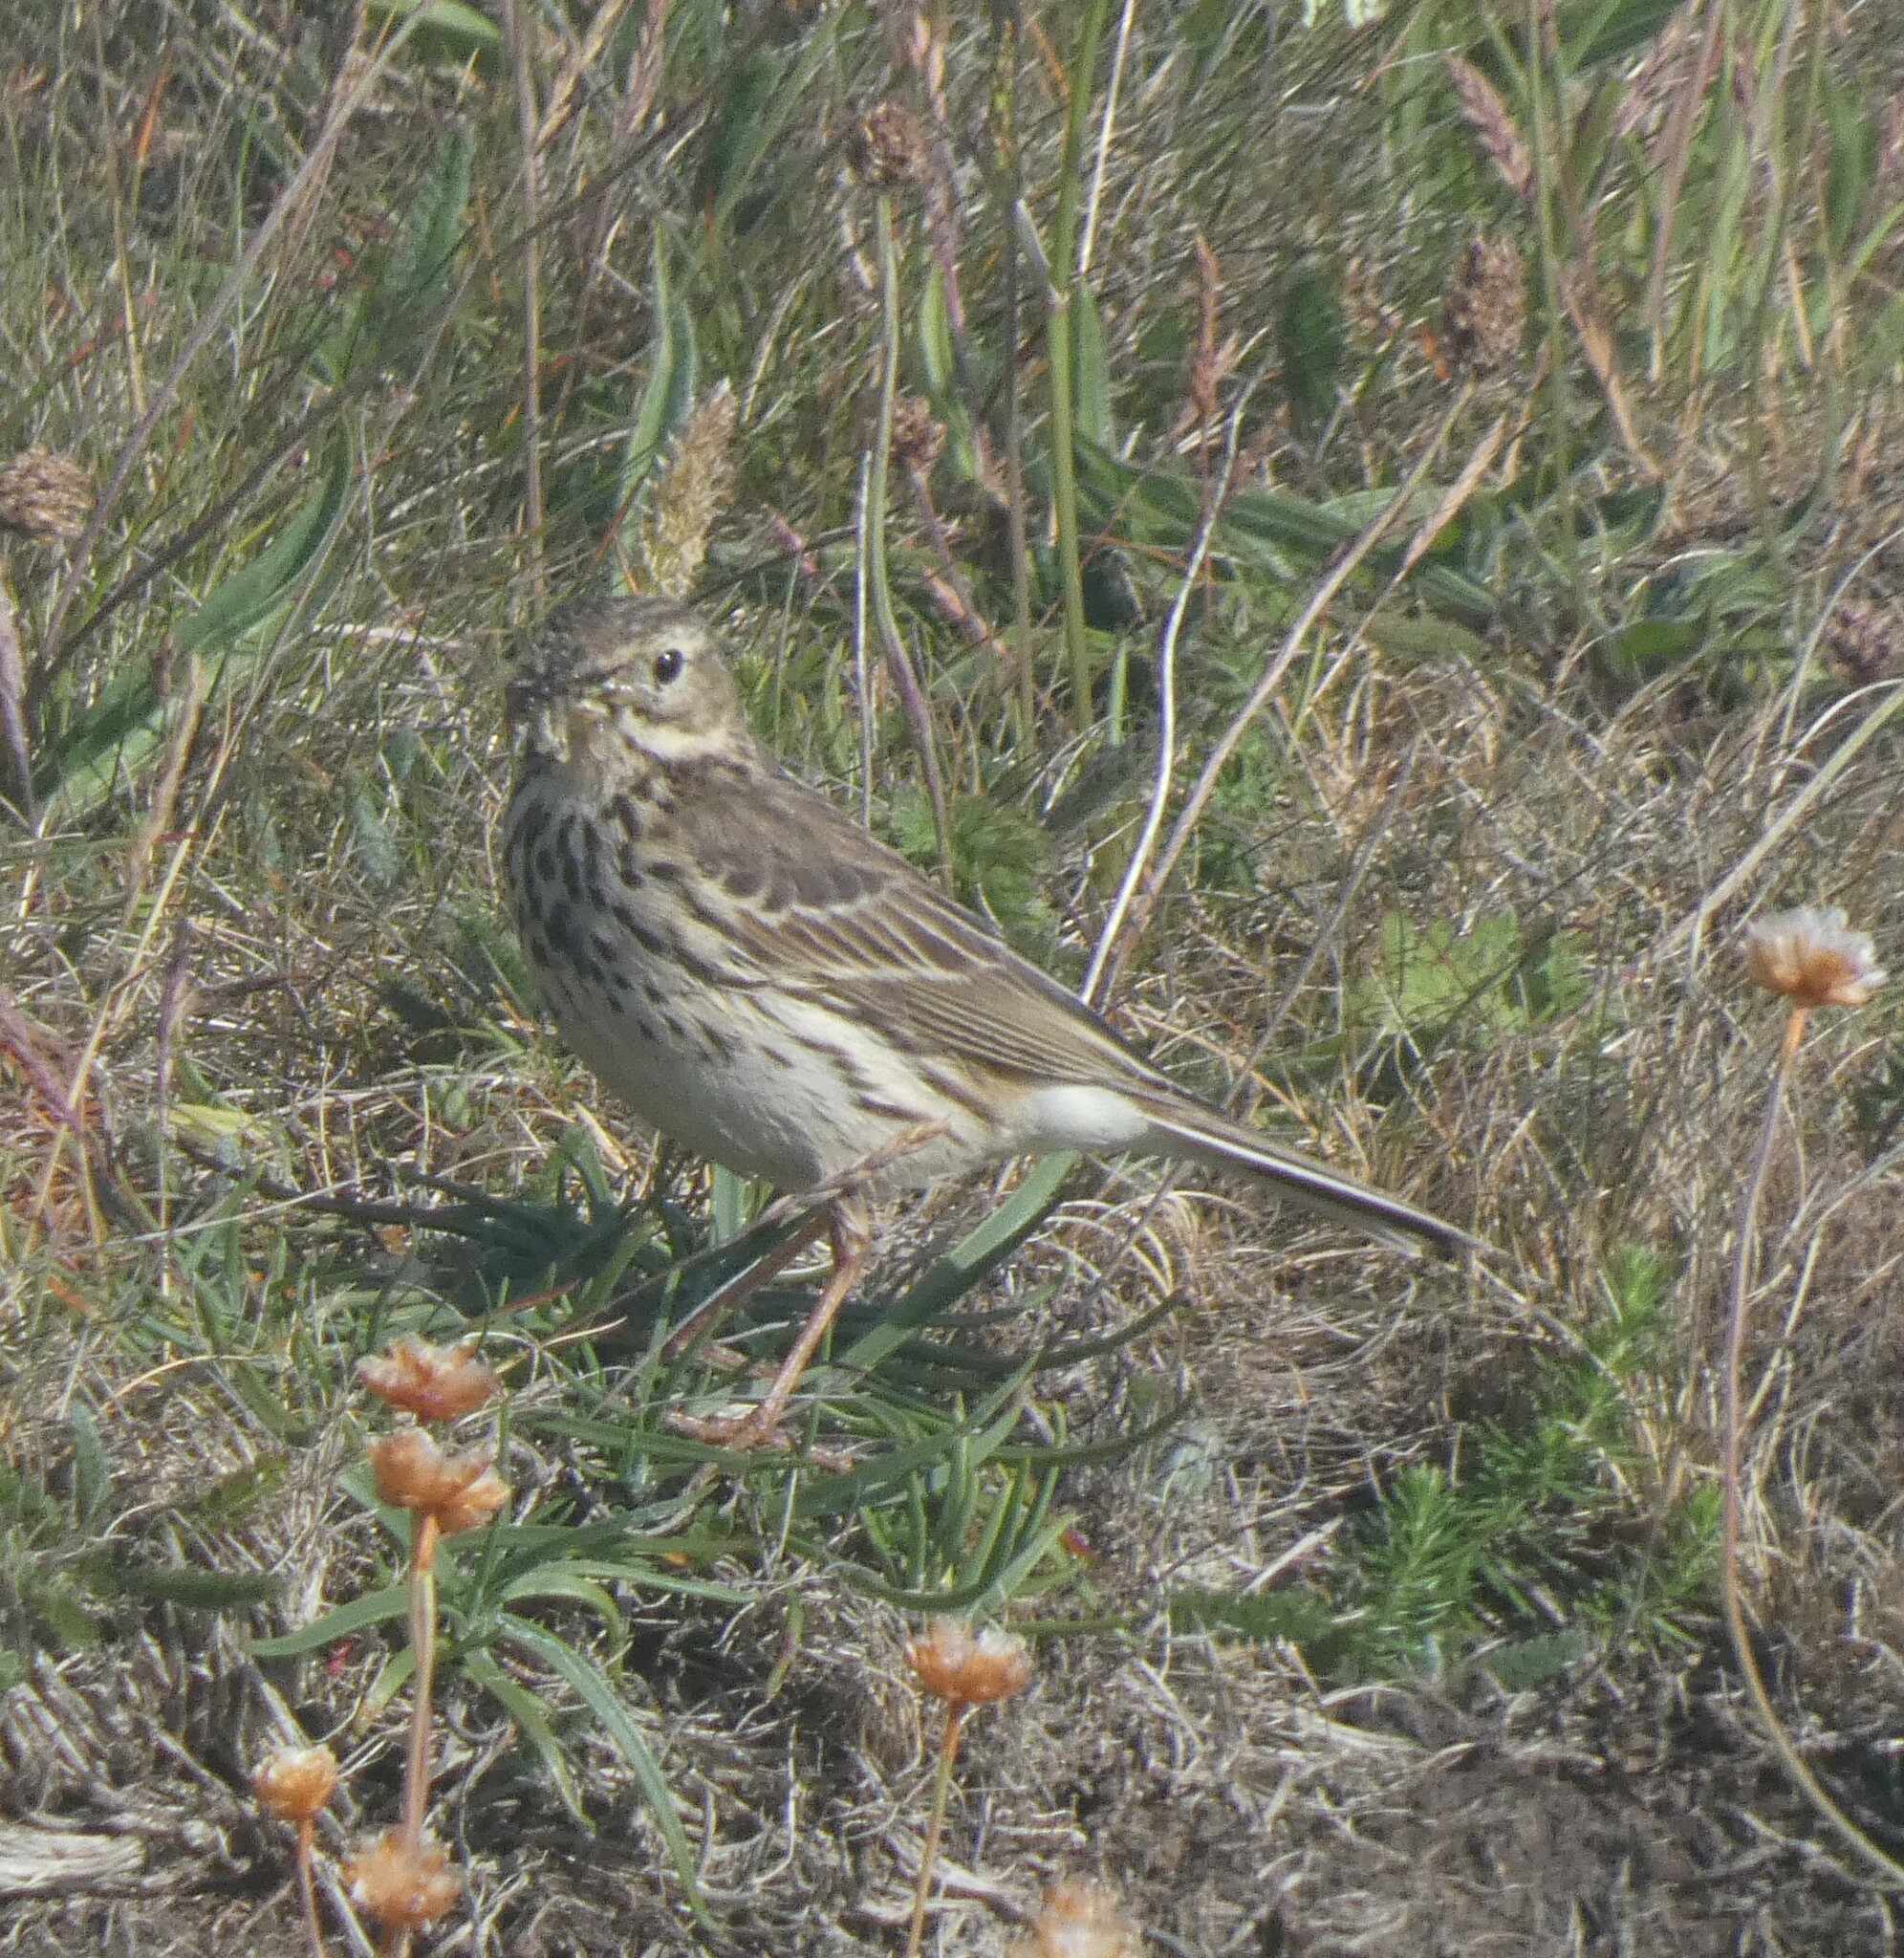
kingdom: Animalia
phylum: Chordata
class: Aves
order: Passeriformes
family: Motacillidae
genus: Anthus
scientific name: Anthus pratensis
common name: Meadow pipit
